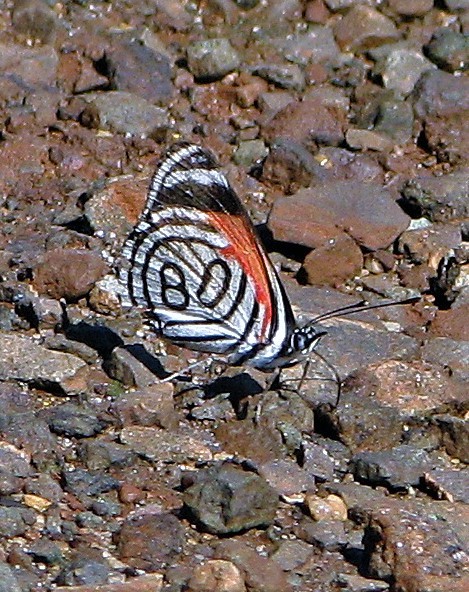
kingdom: Animalia
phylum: Arthropoda
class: Insecta
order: Lepidoptera
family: Nymphalidae
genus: Diaethria
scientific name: Diaethria candrena
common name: Number eighty
